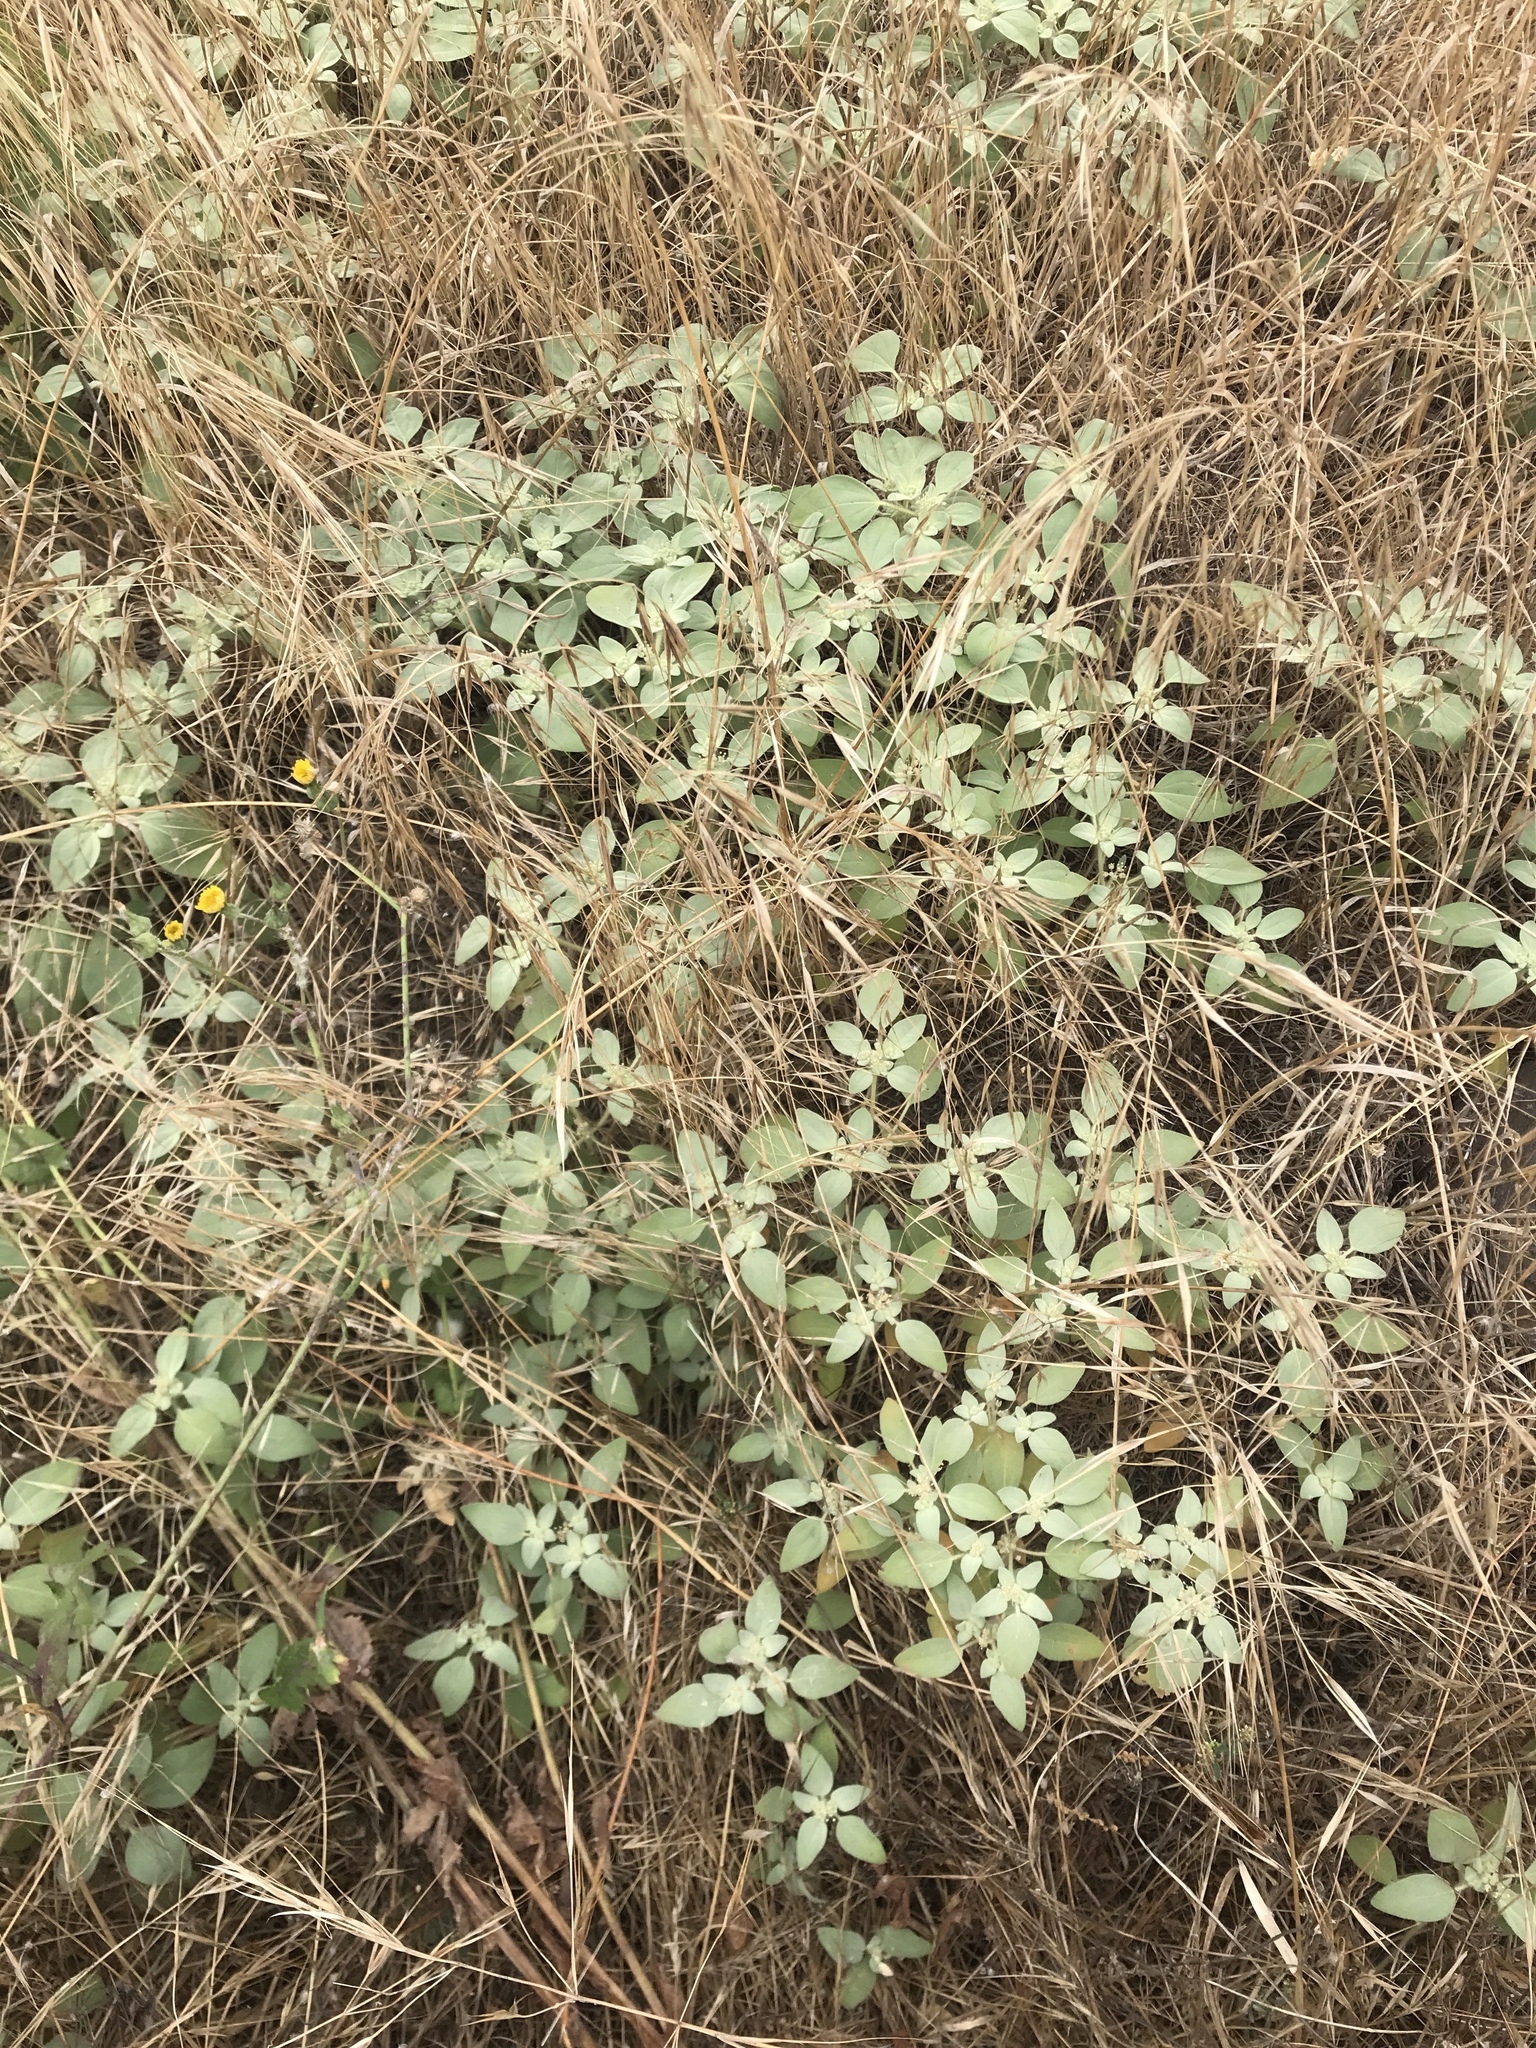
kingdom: Plantae
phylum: Tracheophyta
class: Magnoliopsida
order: Malpighiales
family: Euphorbiaceae
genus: Croton
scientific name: Croton setiger
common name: Dove weed
